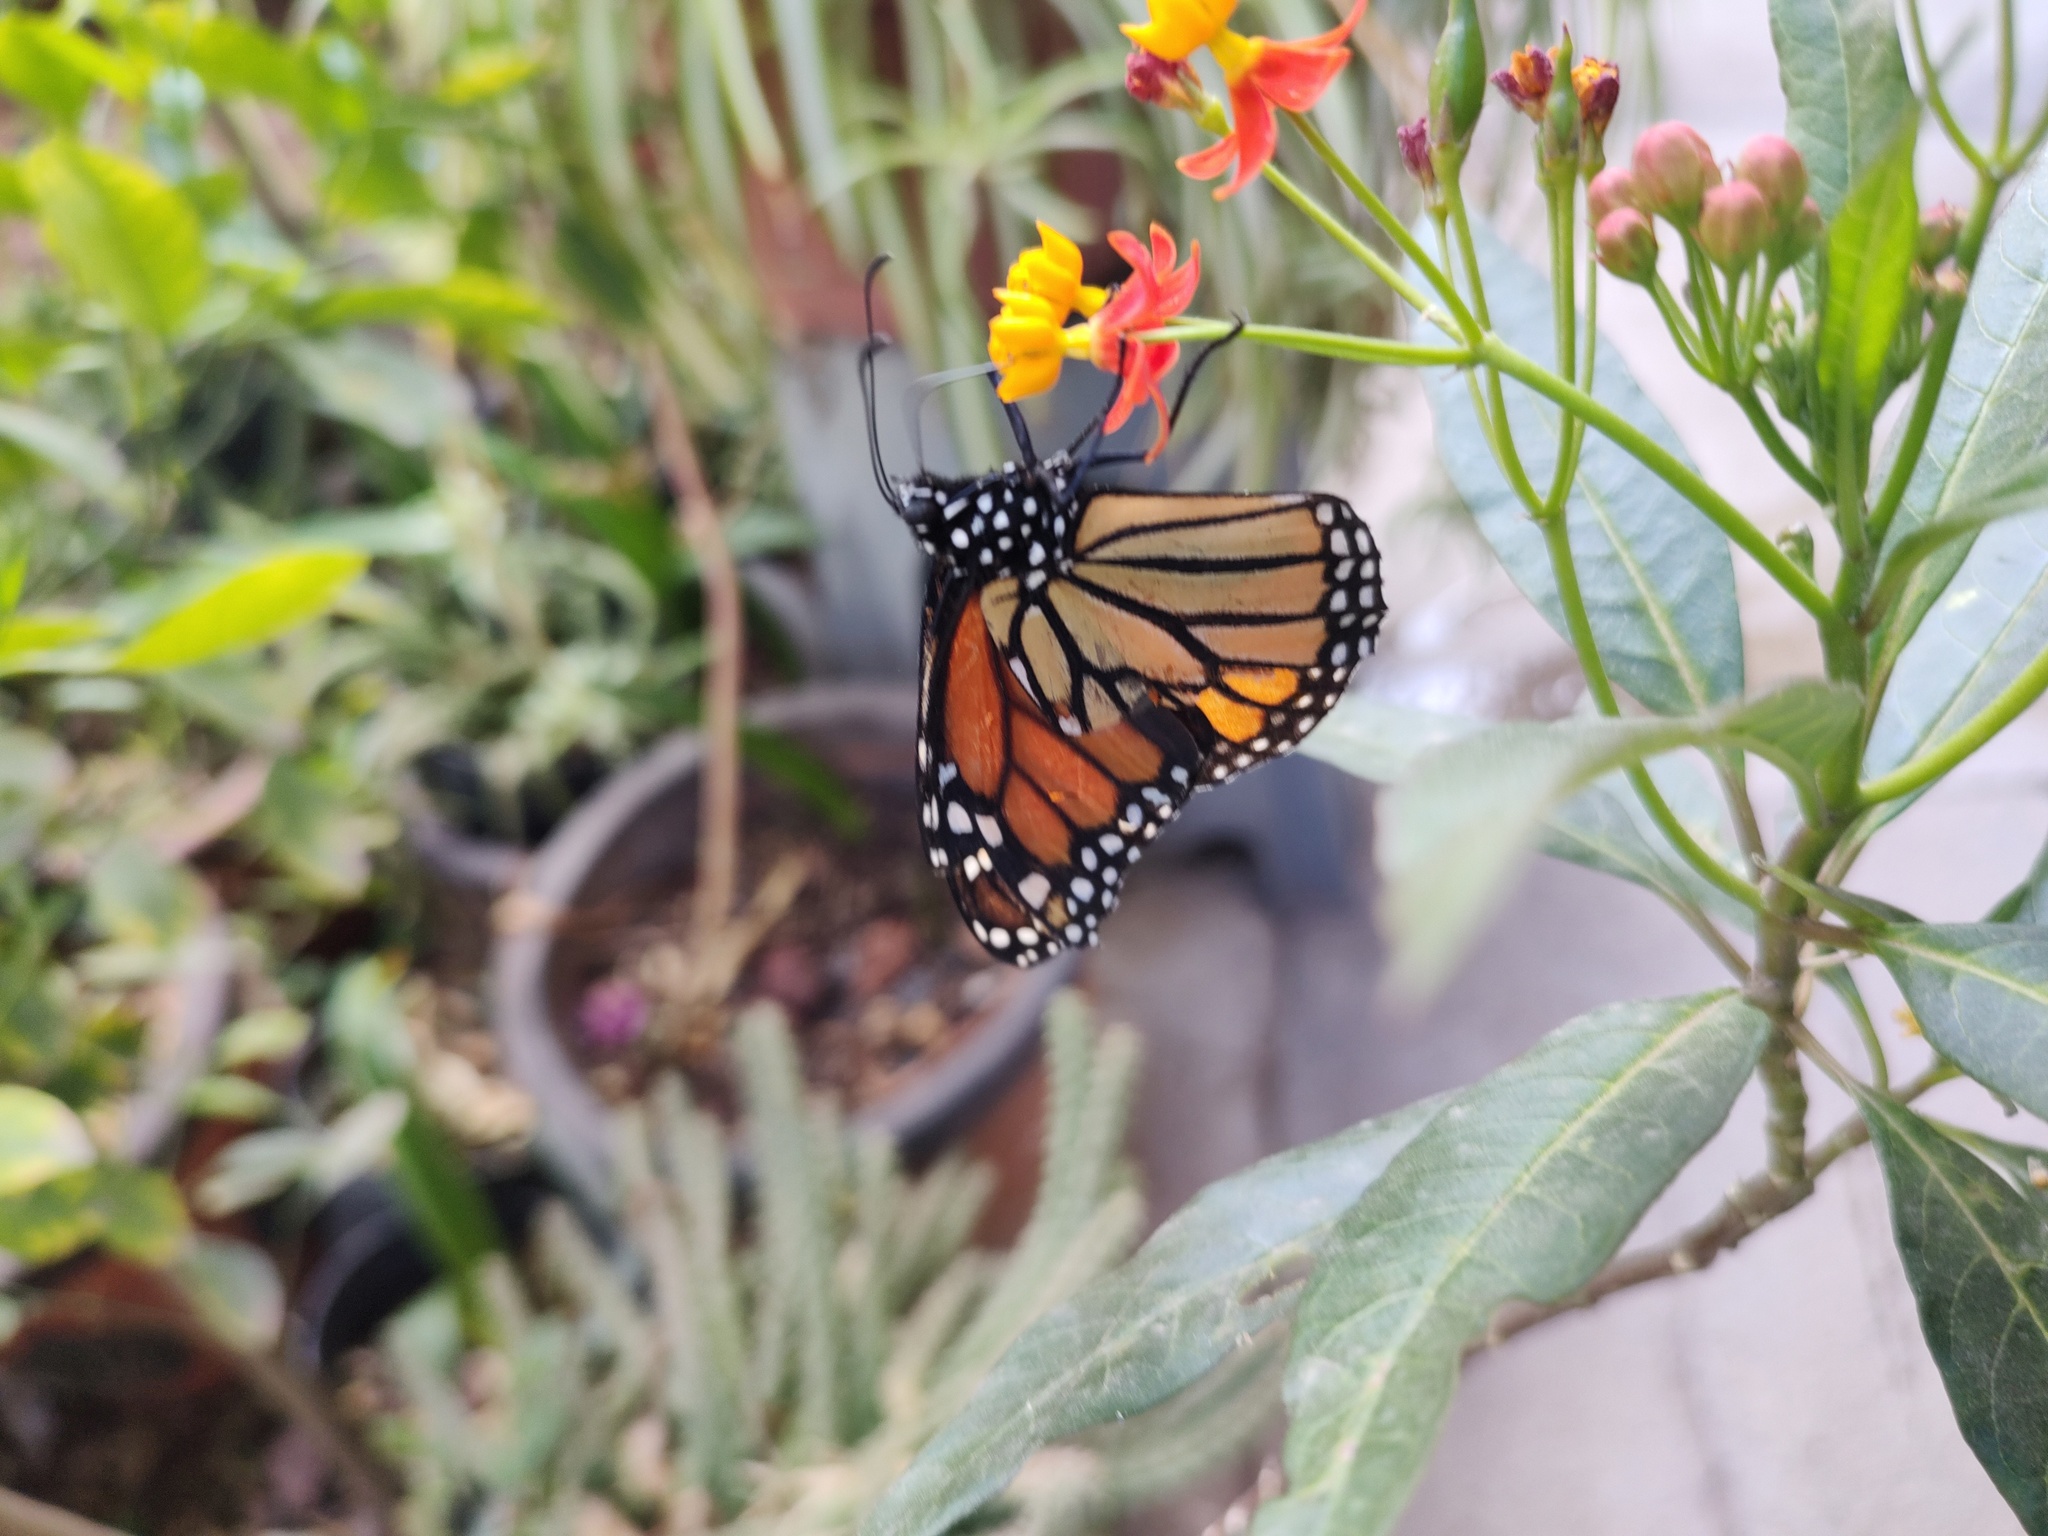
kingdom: Animalia
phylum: Arthropoda
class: Insecta
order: Lepidoptera
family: Nymphalidae
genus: Danaus
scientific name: Danaus plexippus
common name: Monarch
